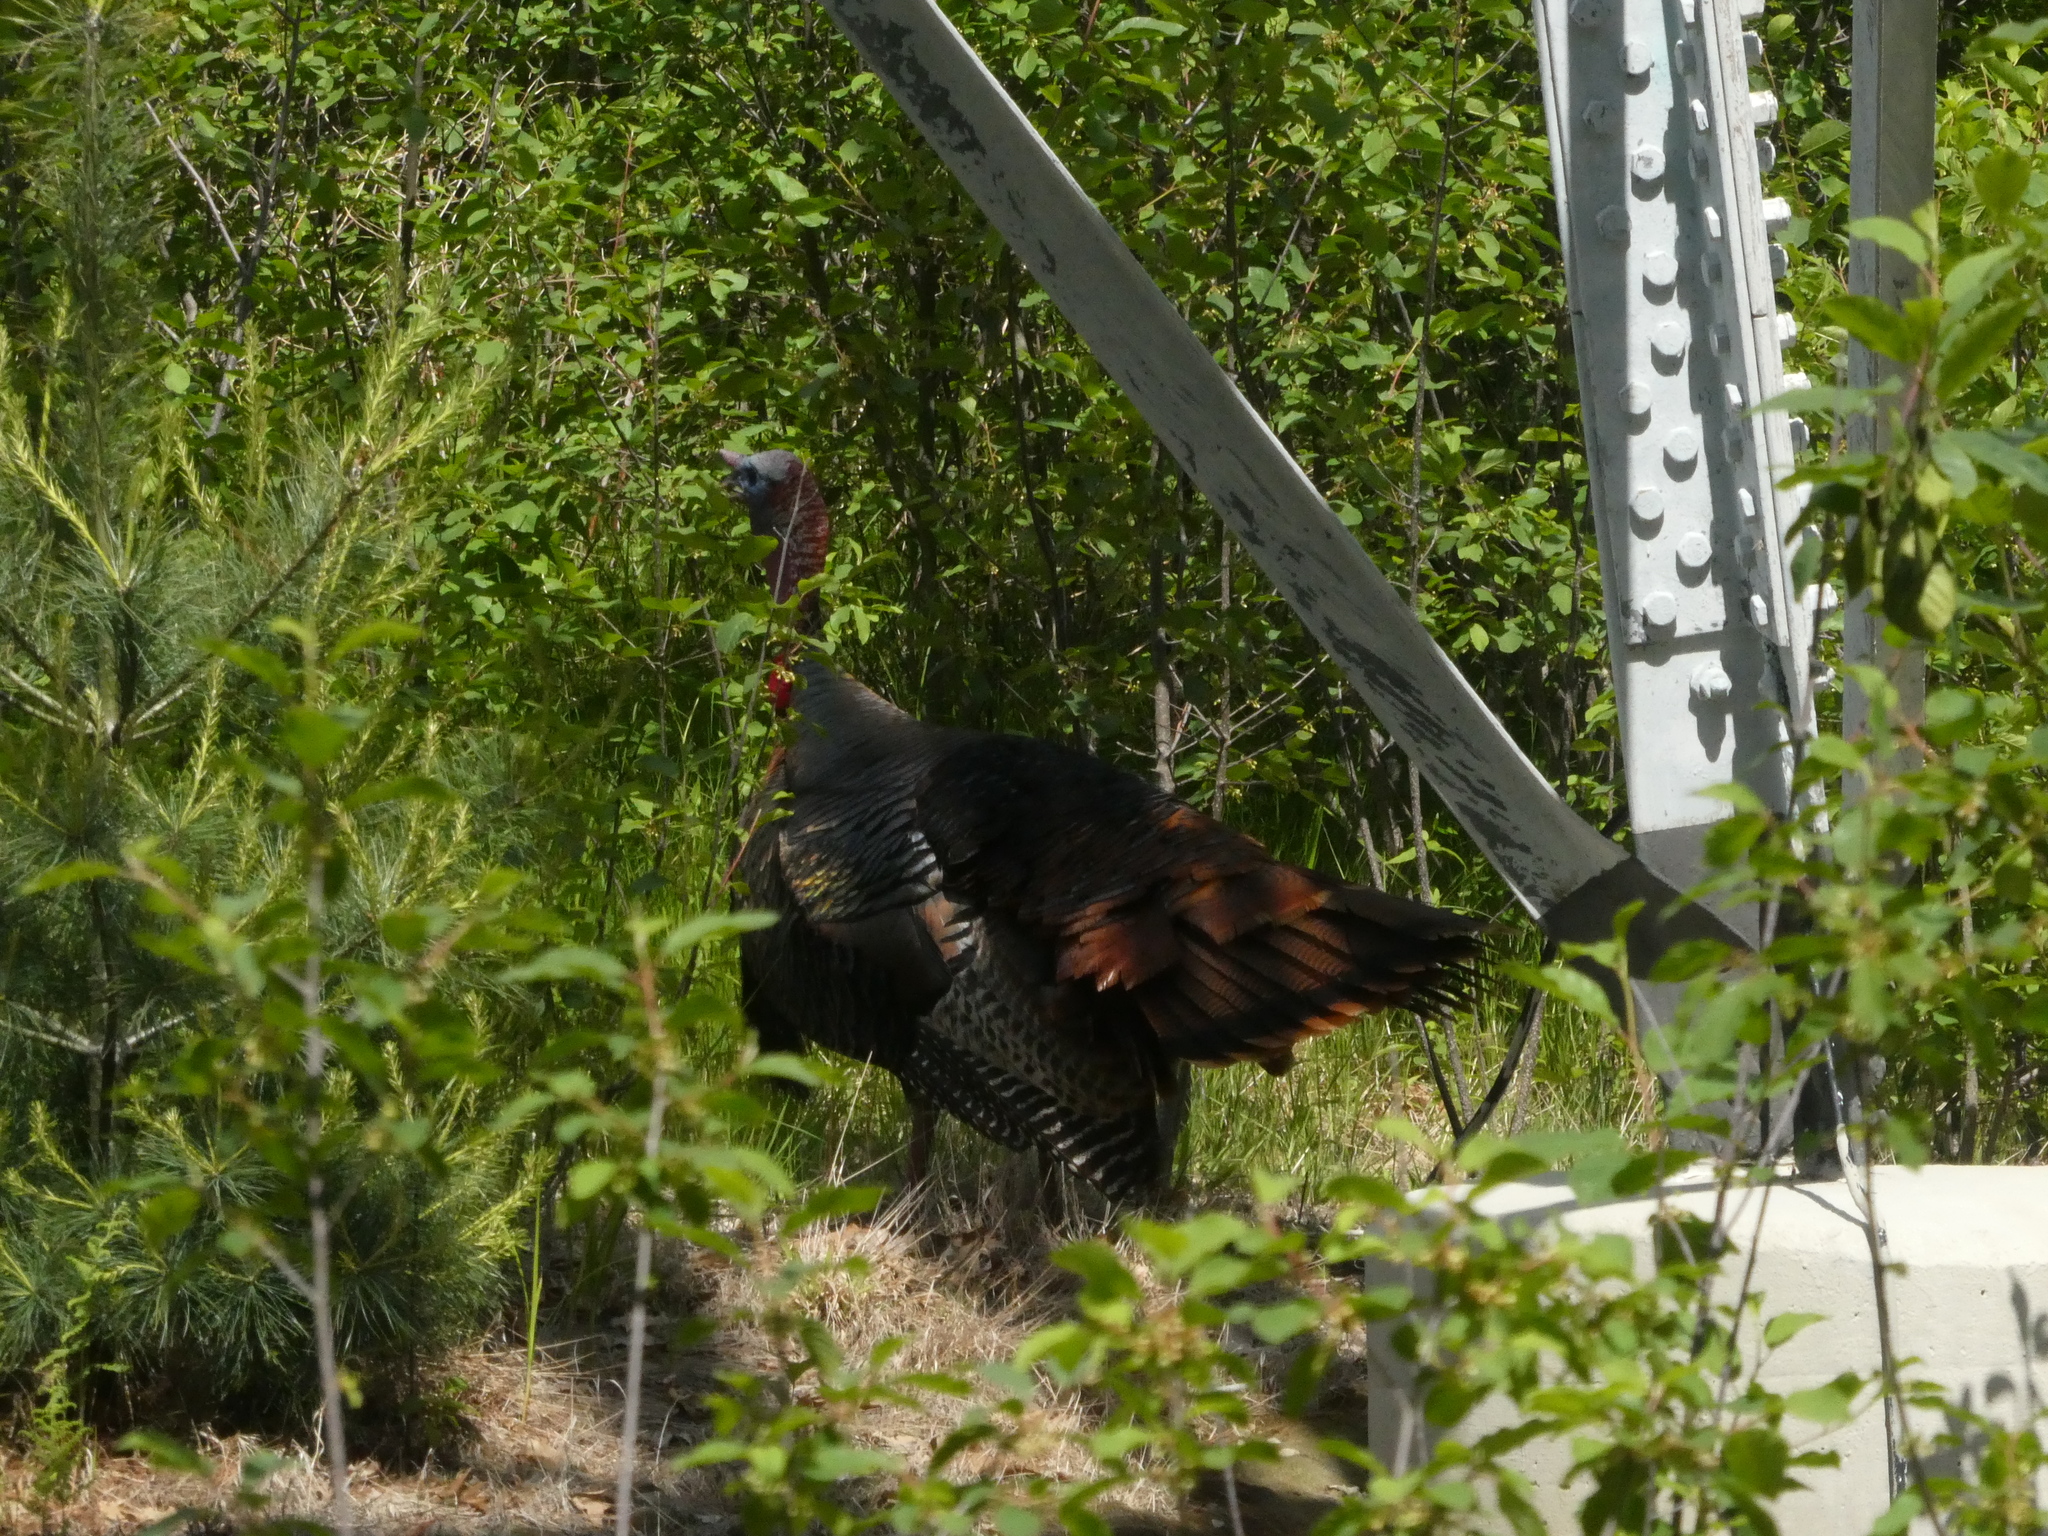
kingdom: Animalia
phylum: Chordata
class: Aves
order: Galliformes
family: Phasianidae
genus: Meleagris
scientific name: Meleagris gallopavo
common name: Wild turkey
